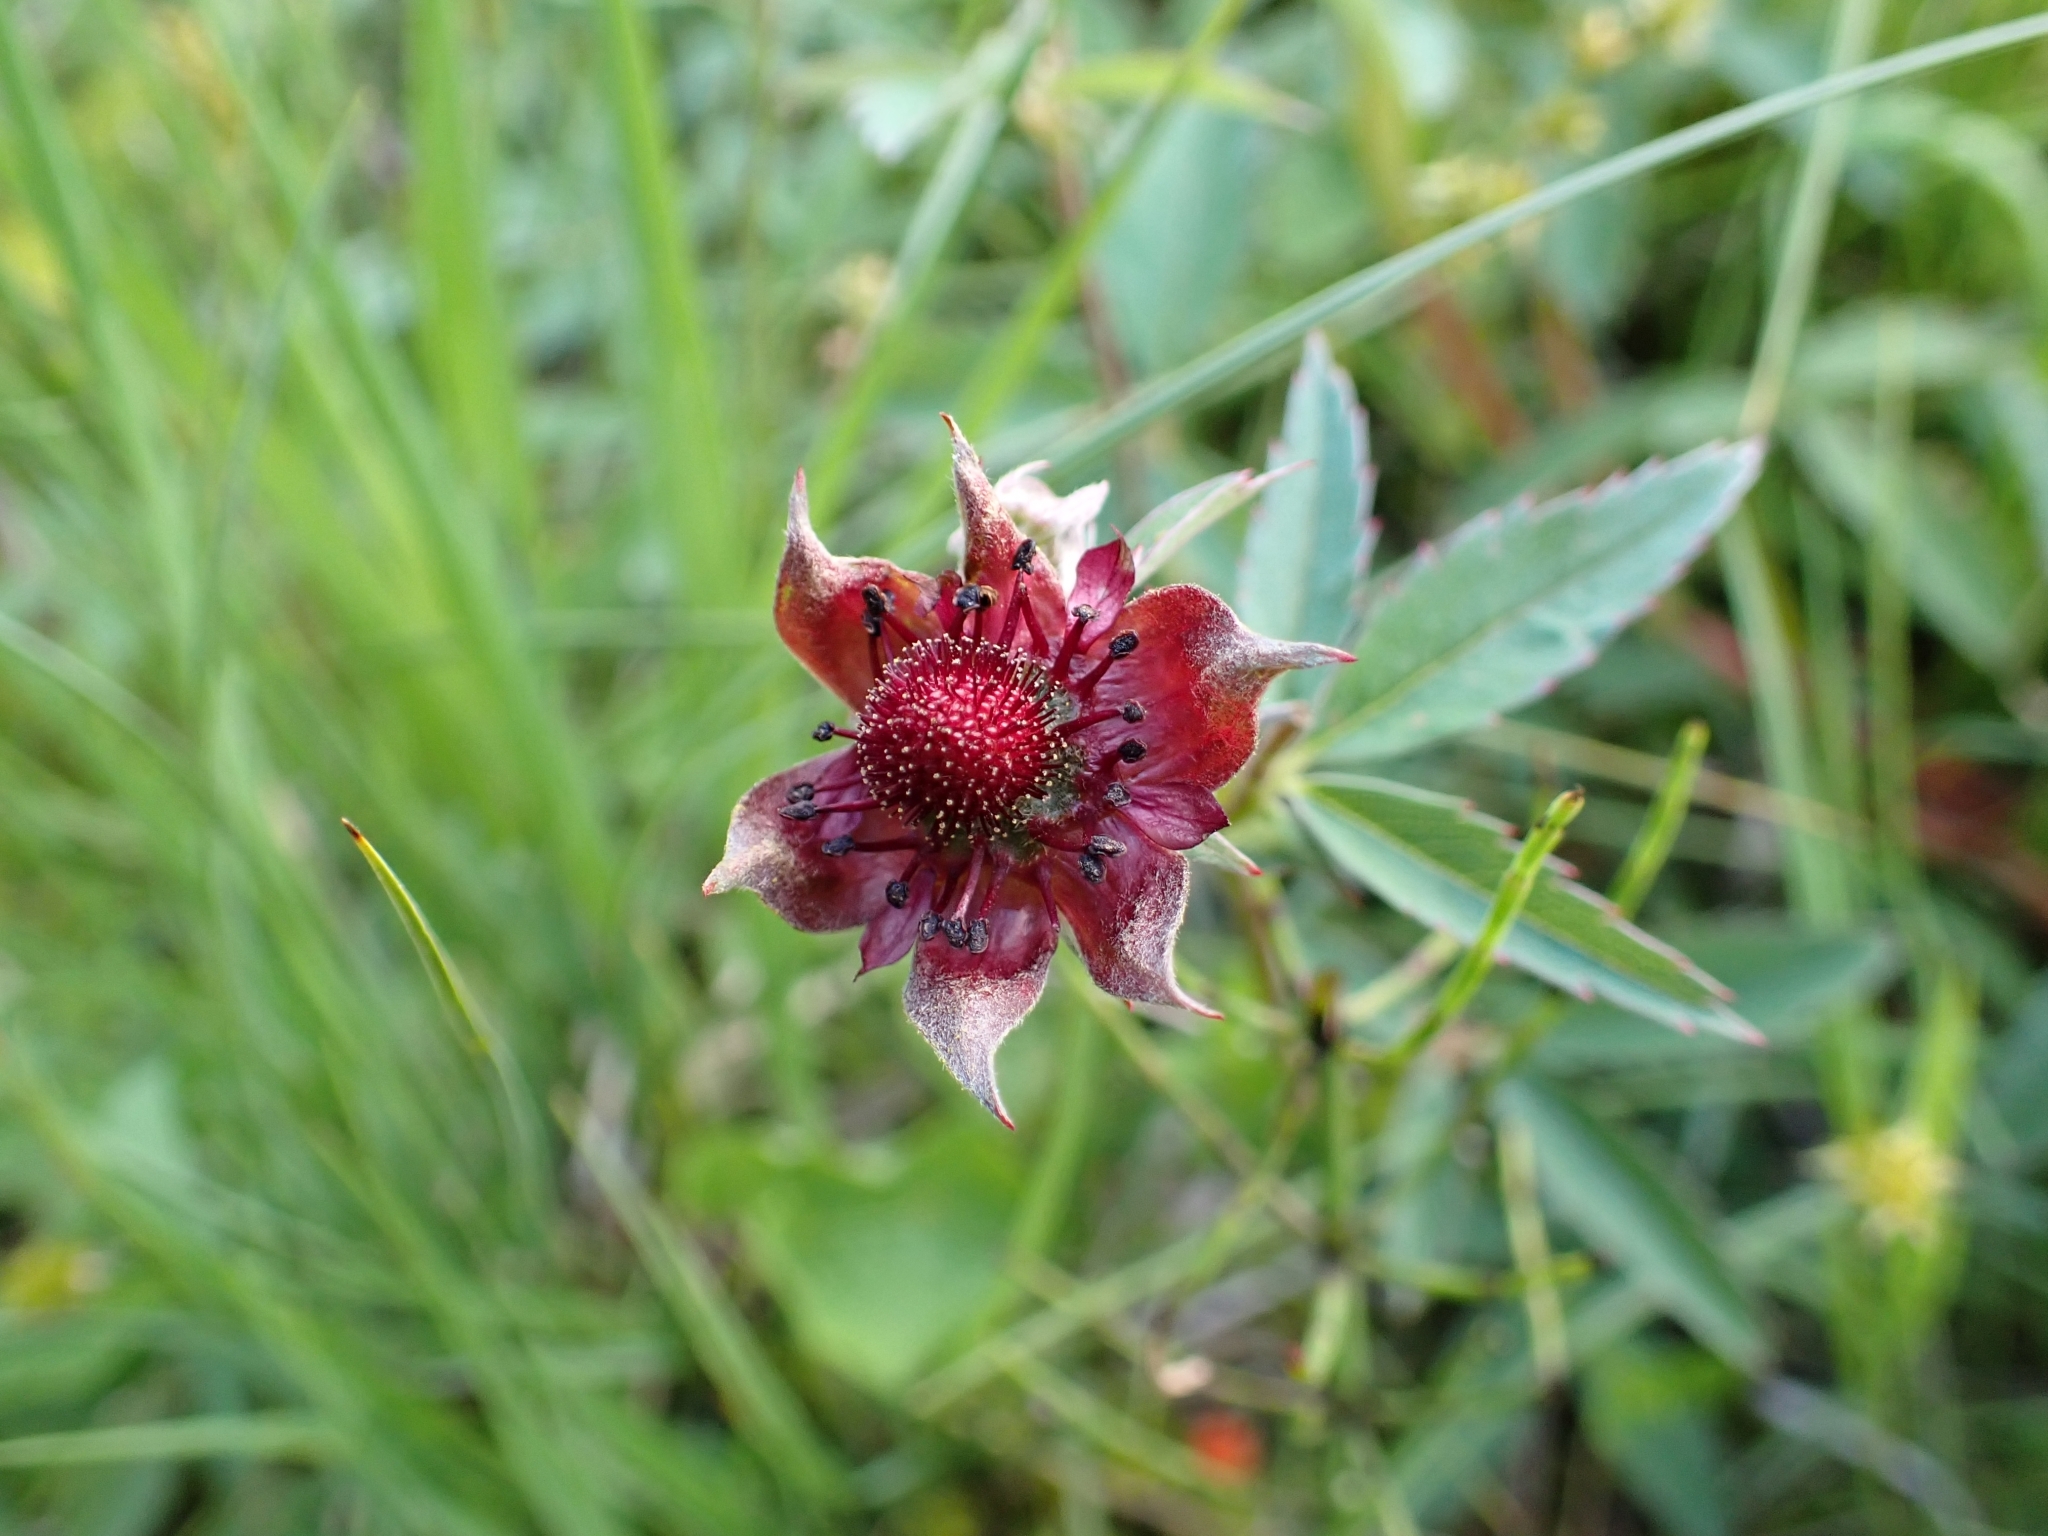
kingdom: Plantae
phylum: Tracheophyta
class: Magnoliopsida
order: Rosales
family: Rosaceae
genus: Comarum
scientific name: Comarum palustre
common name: Marsh cinquefoil
